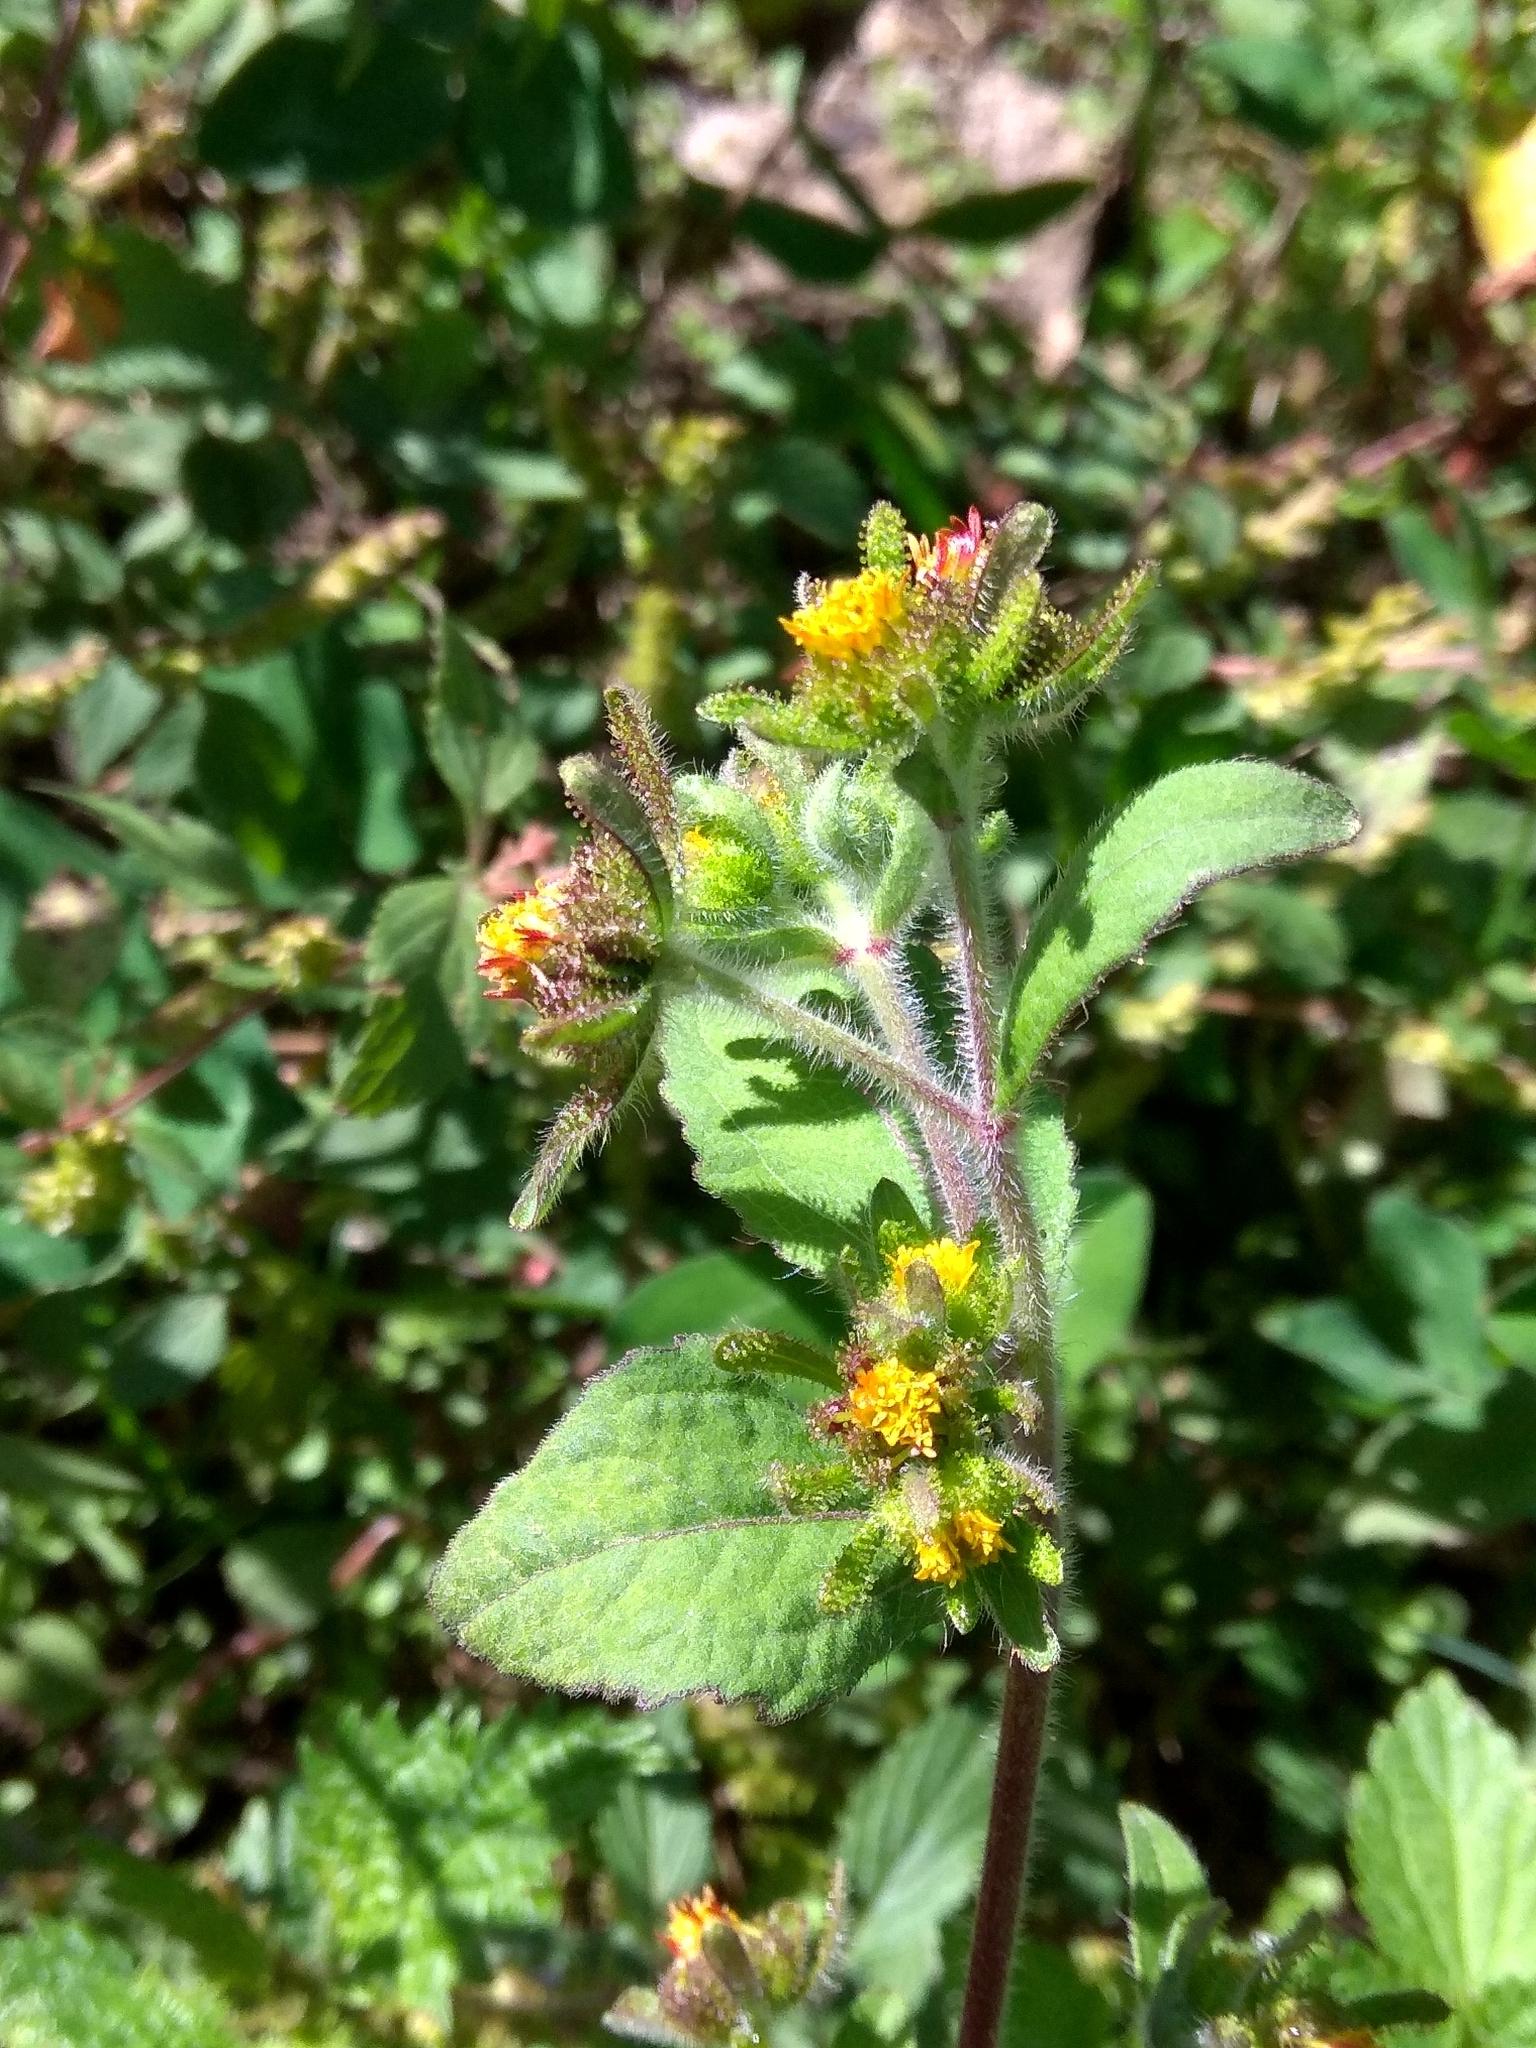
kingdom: Plantae
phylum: Tracheophyta
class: Magnoliopsida
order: Asterales
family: Asteraceae
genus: Sigesbeckia
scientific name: Sigesbeckia orientalis
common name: Eastern st paul's-wort
